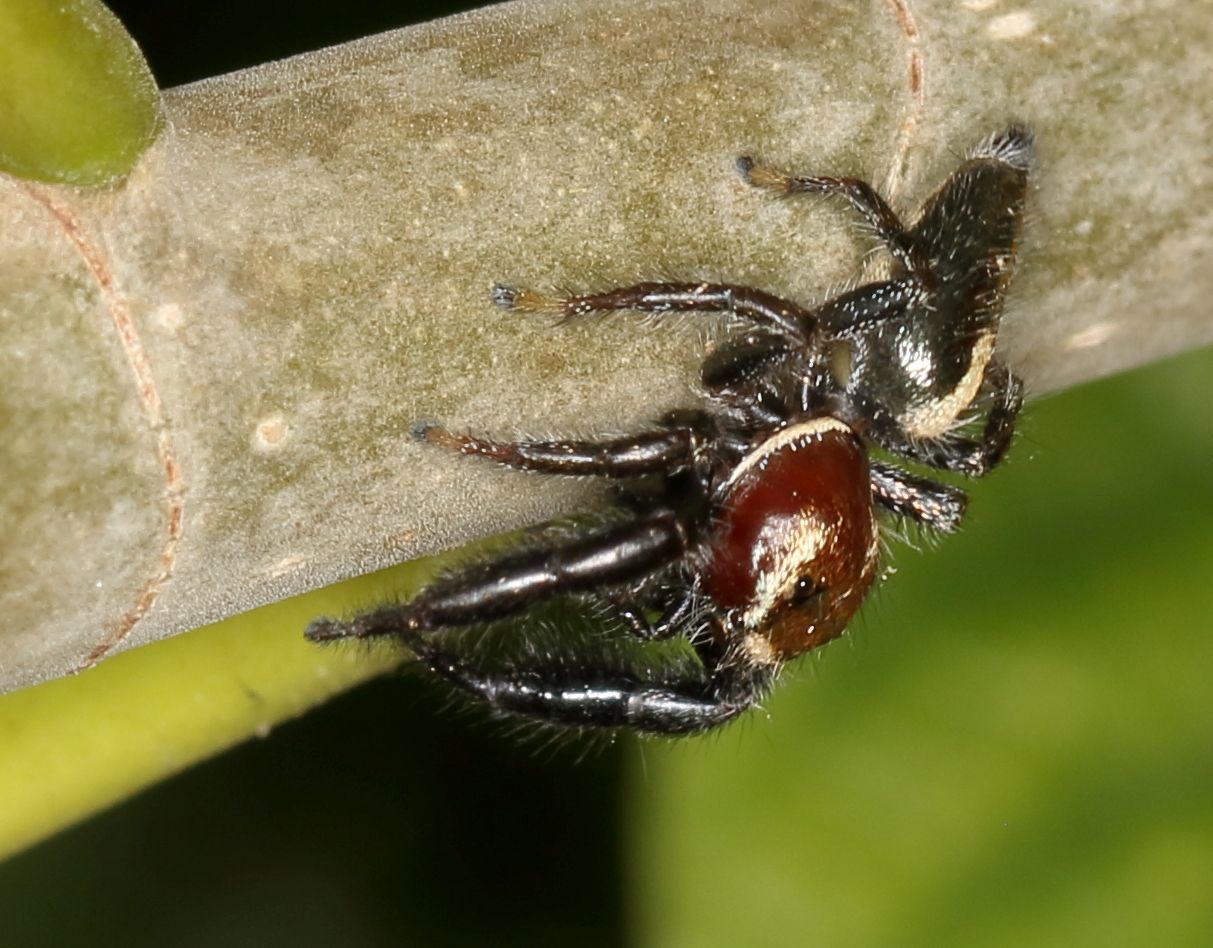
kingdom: Animalia
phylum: Arthropoda
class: Arachnida
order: Araneae
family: Salticidae
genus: Thyene
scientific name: Thyene bucculenta
